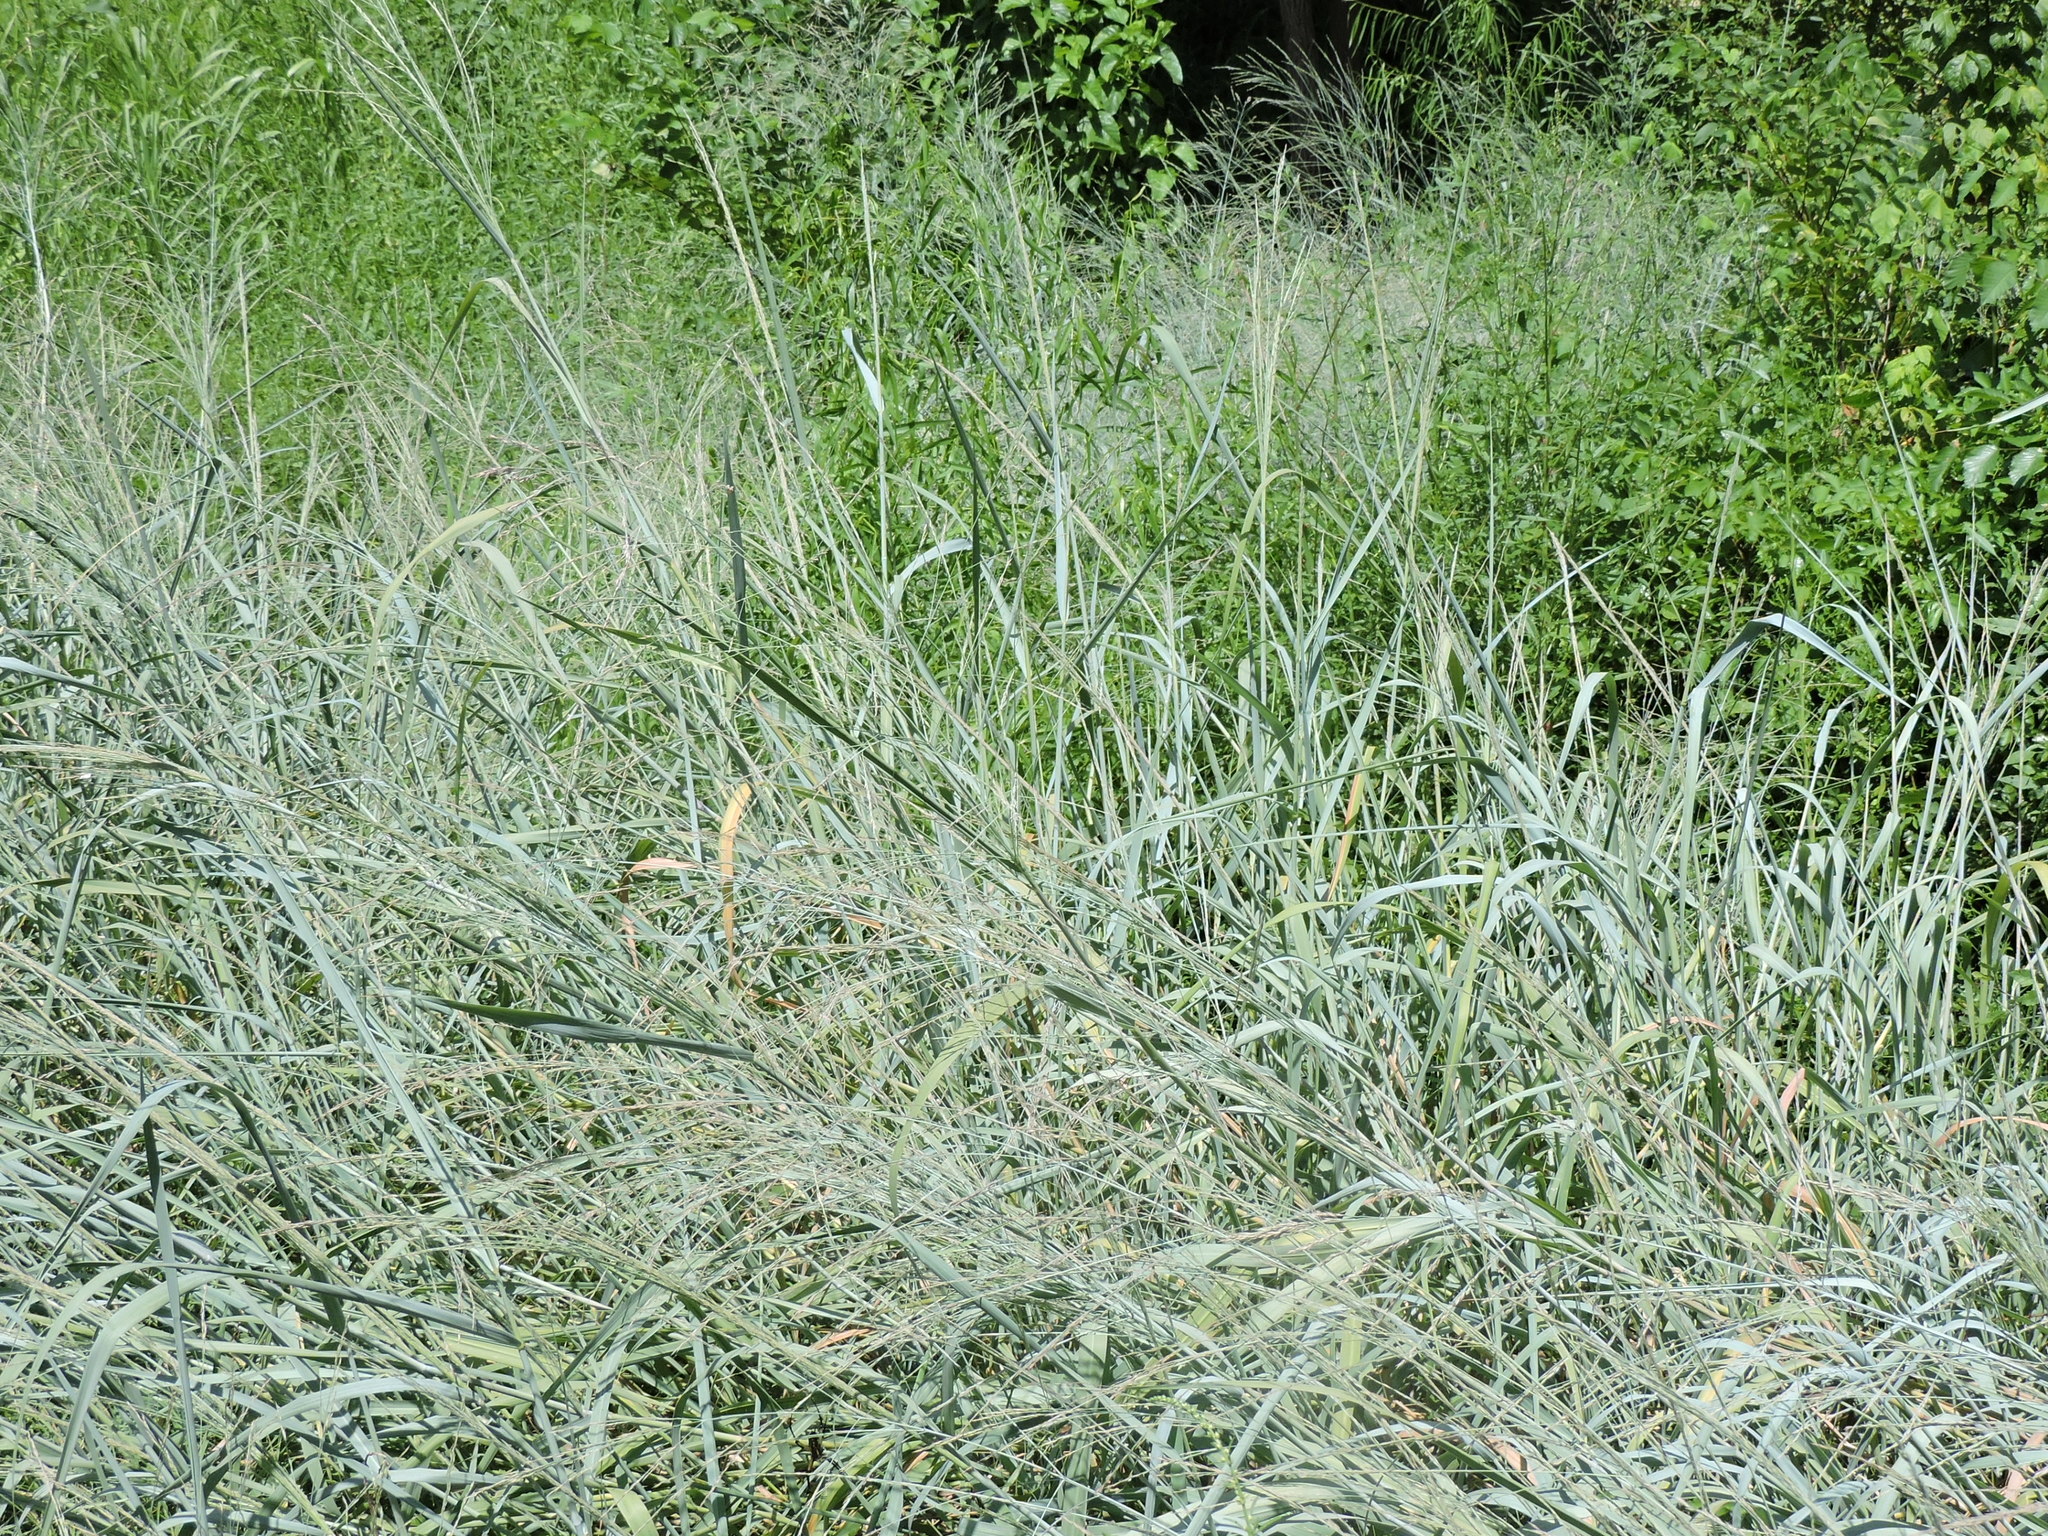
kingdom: Plantae
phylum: Tracheophyta
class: Liliopsida
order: Poales
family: Poaceae
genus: Panicum
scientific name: Panicum virgatum
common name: Switchgrass
